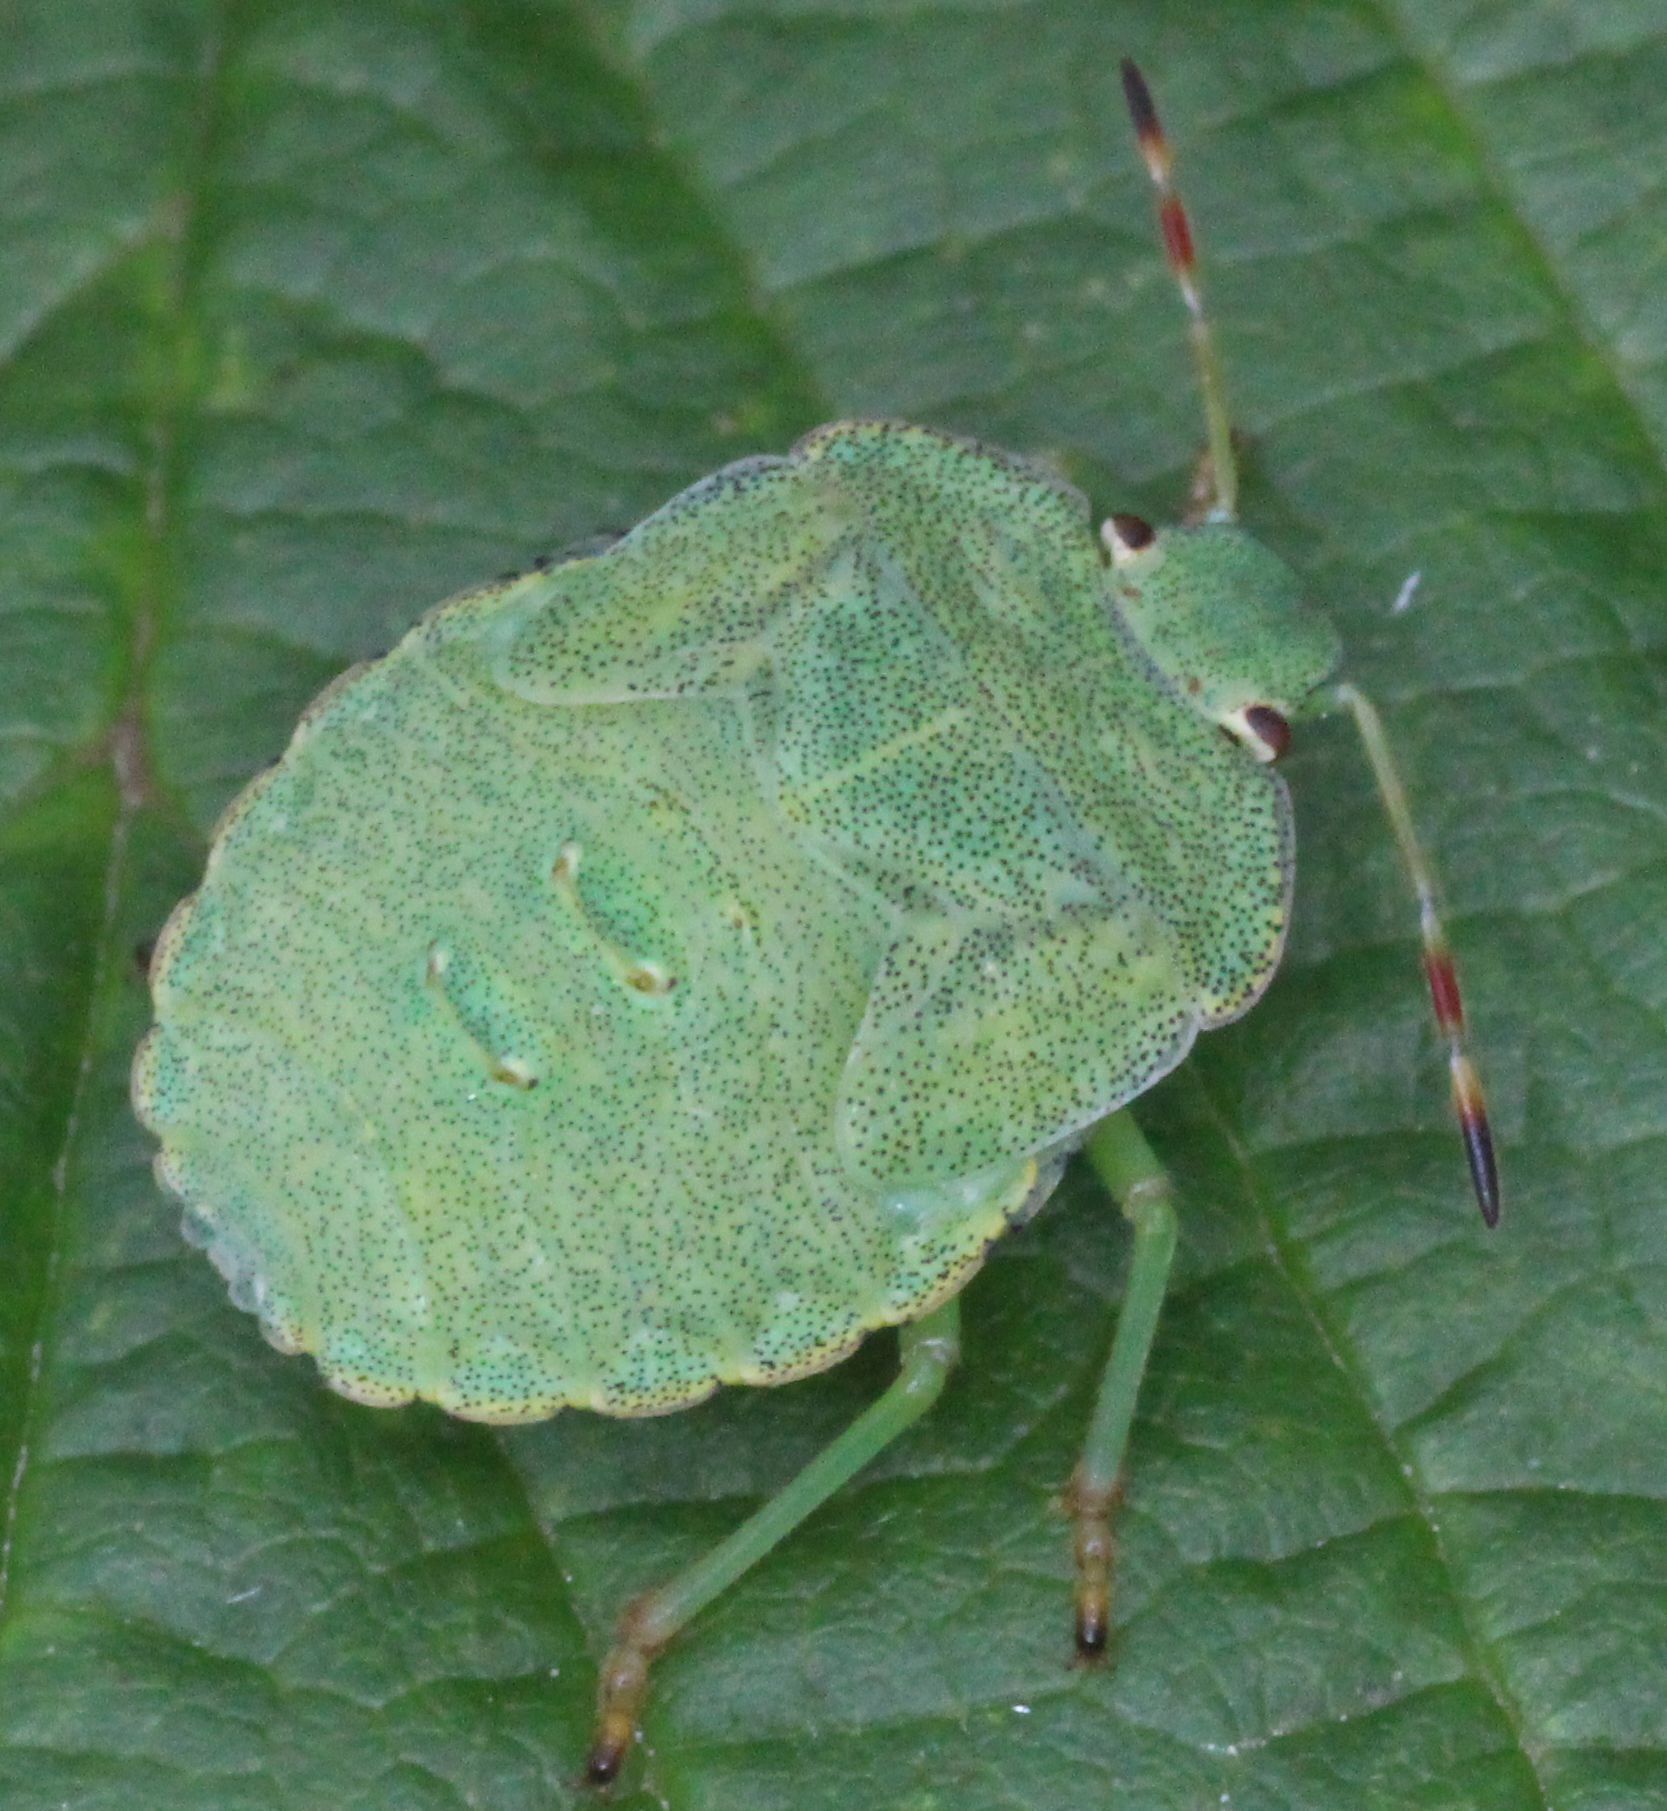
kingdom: Animalia
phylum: Arthropoda
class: Insecta
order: Hemiptera
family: Pentatomidae
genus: Palomena
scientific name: Palomena prasina
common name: Green shieldbug
